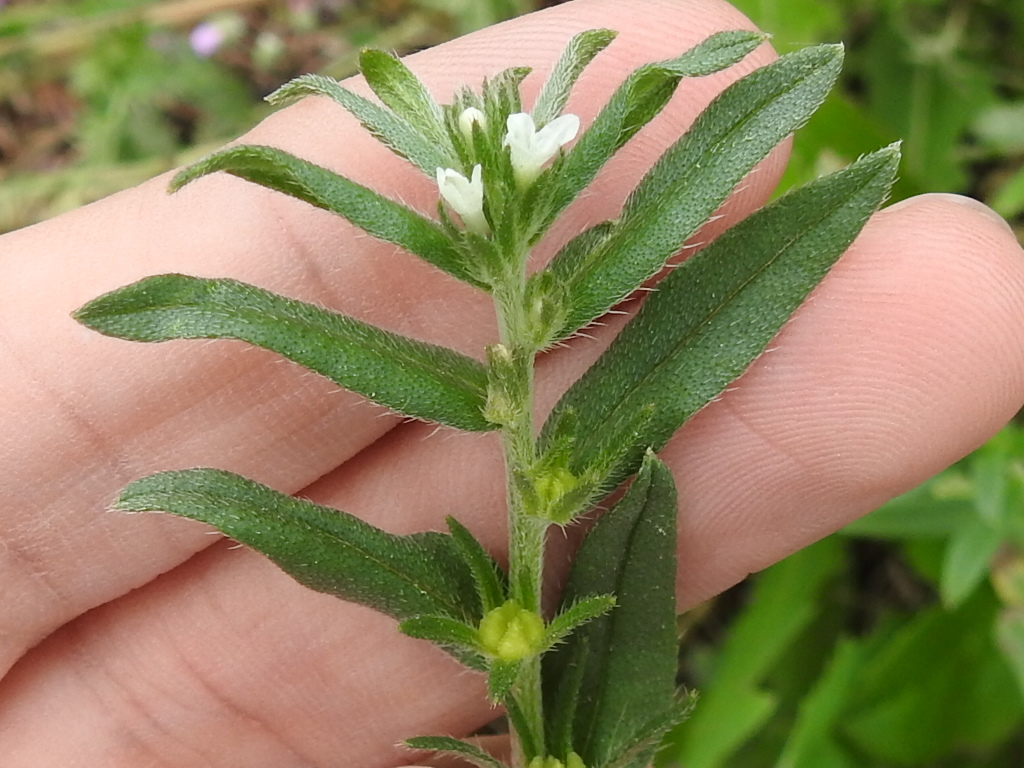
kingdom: Plantae
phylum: Tracheophyta
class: Magnoliopsida
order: Boraginales
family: Boraginaceae
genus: Buglossoides
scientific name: Buglossoides arvensis
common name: Corn gromwell
